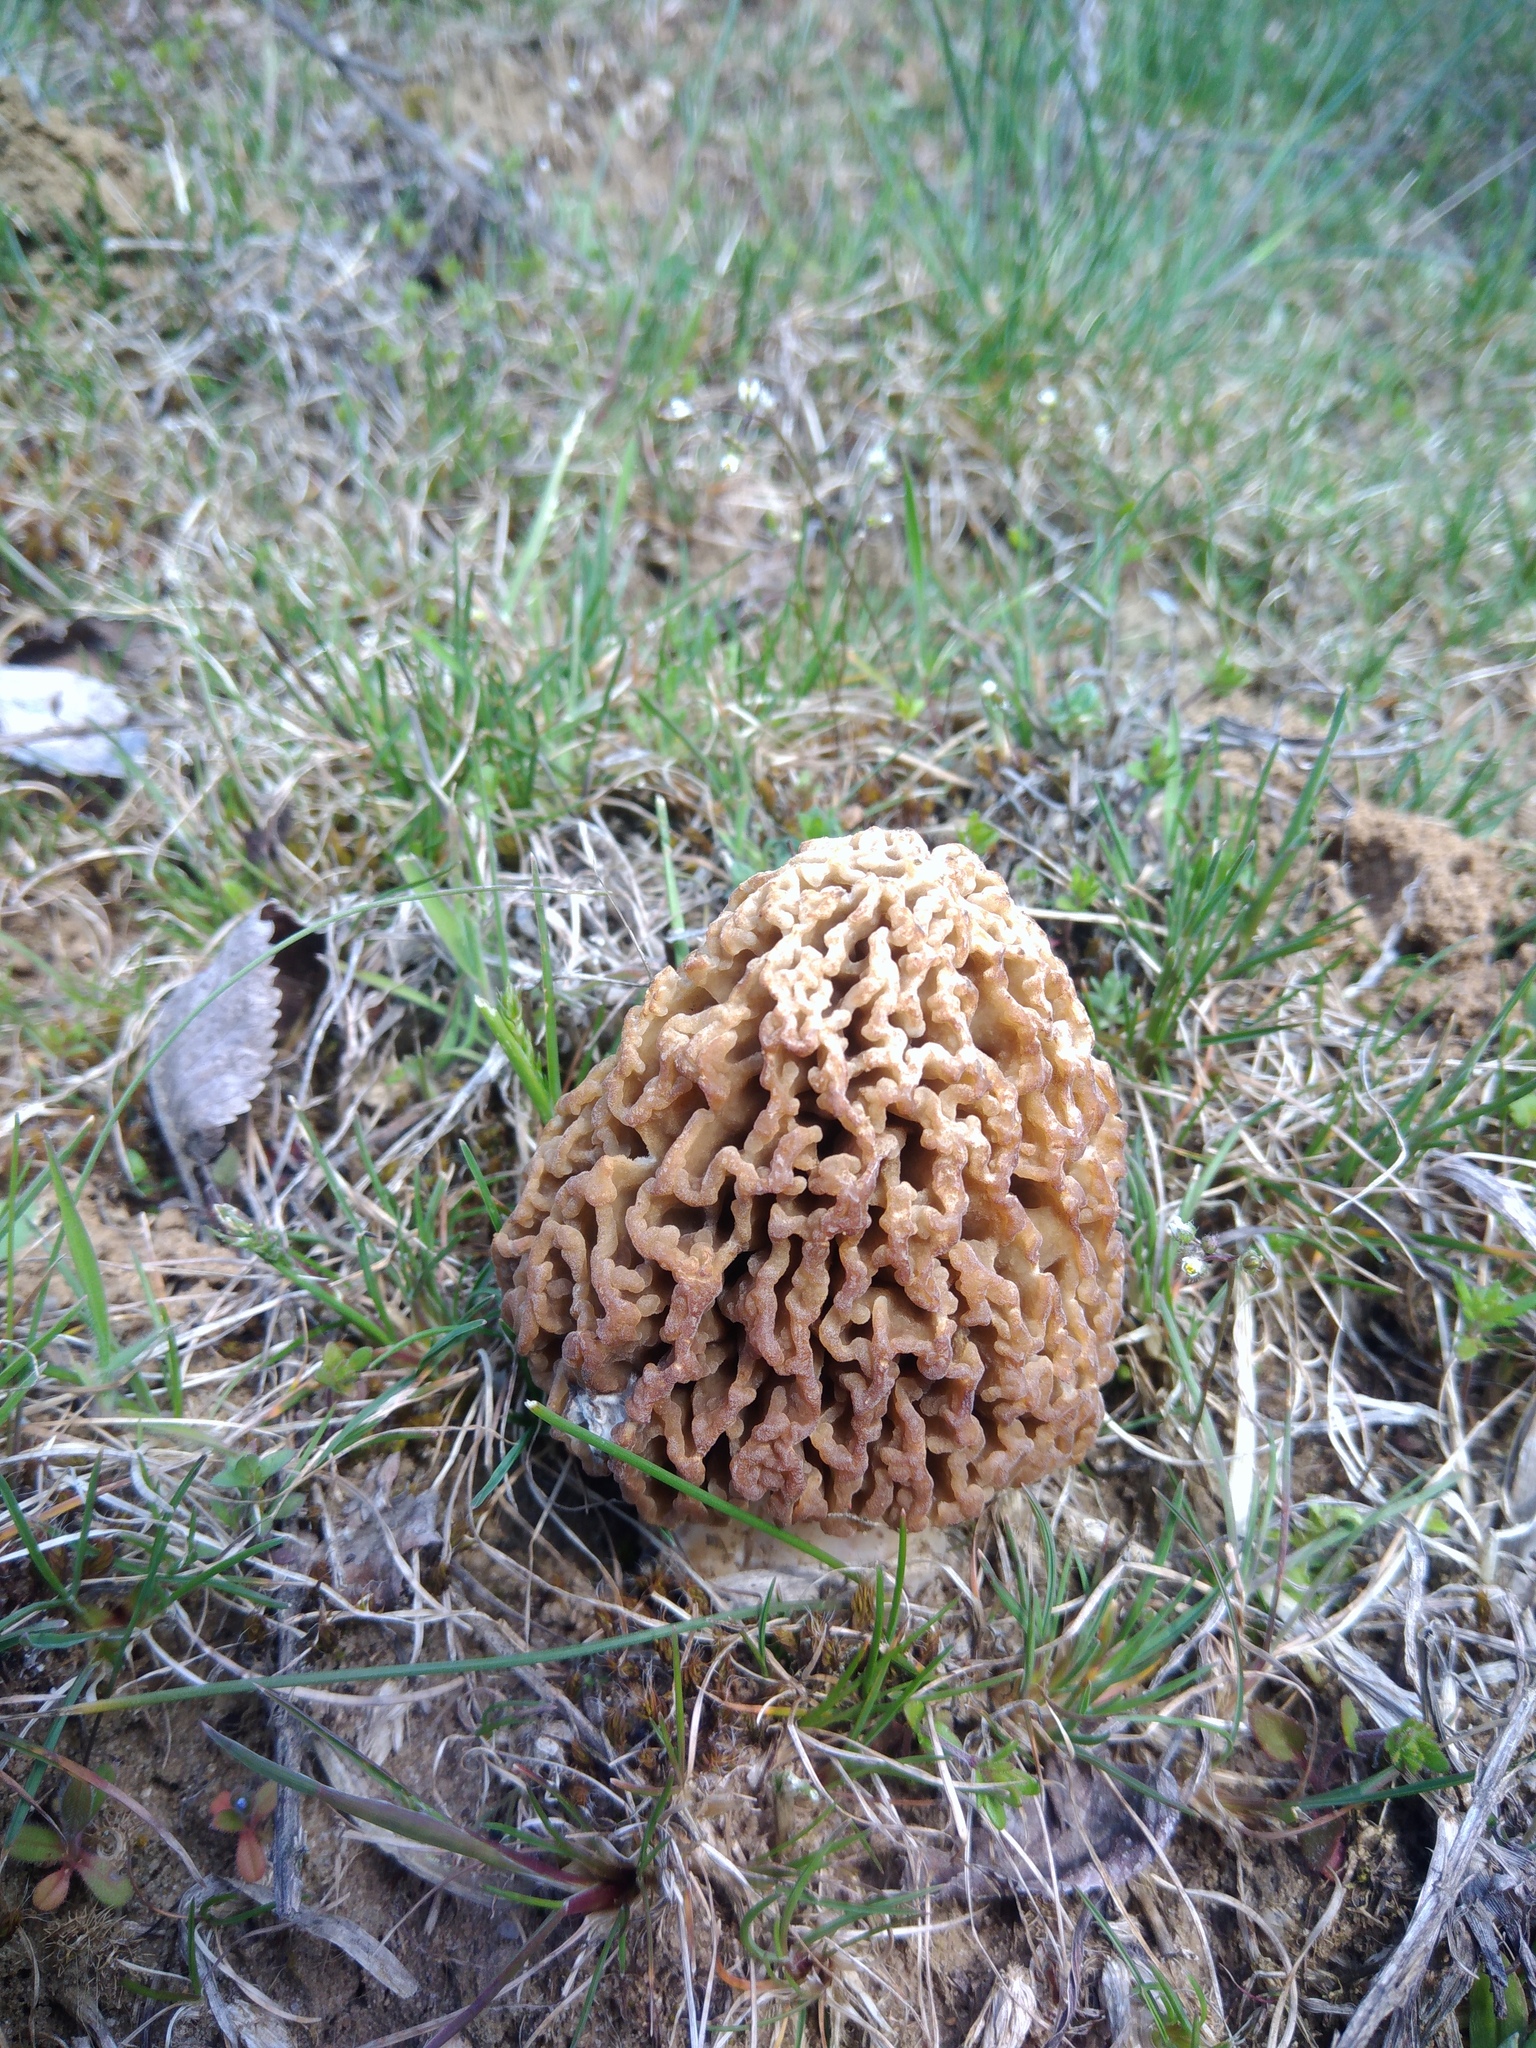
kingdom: Fungi
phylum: Ascomycota
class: Pezizomycetes
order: Pezizales
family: Morchellaceae
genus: Morchella
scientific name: Morchella steppicola
